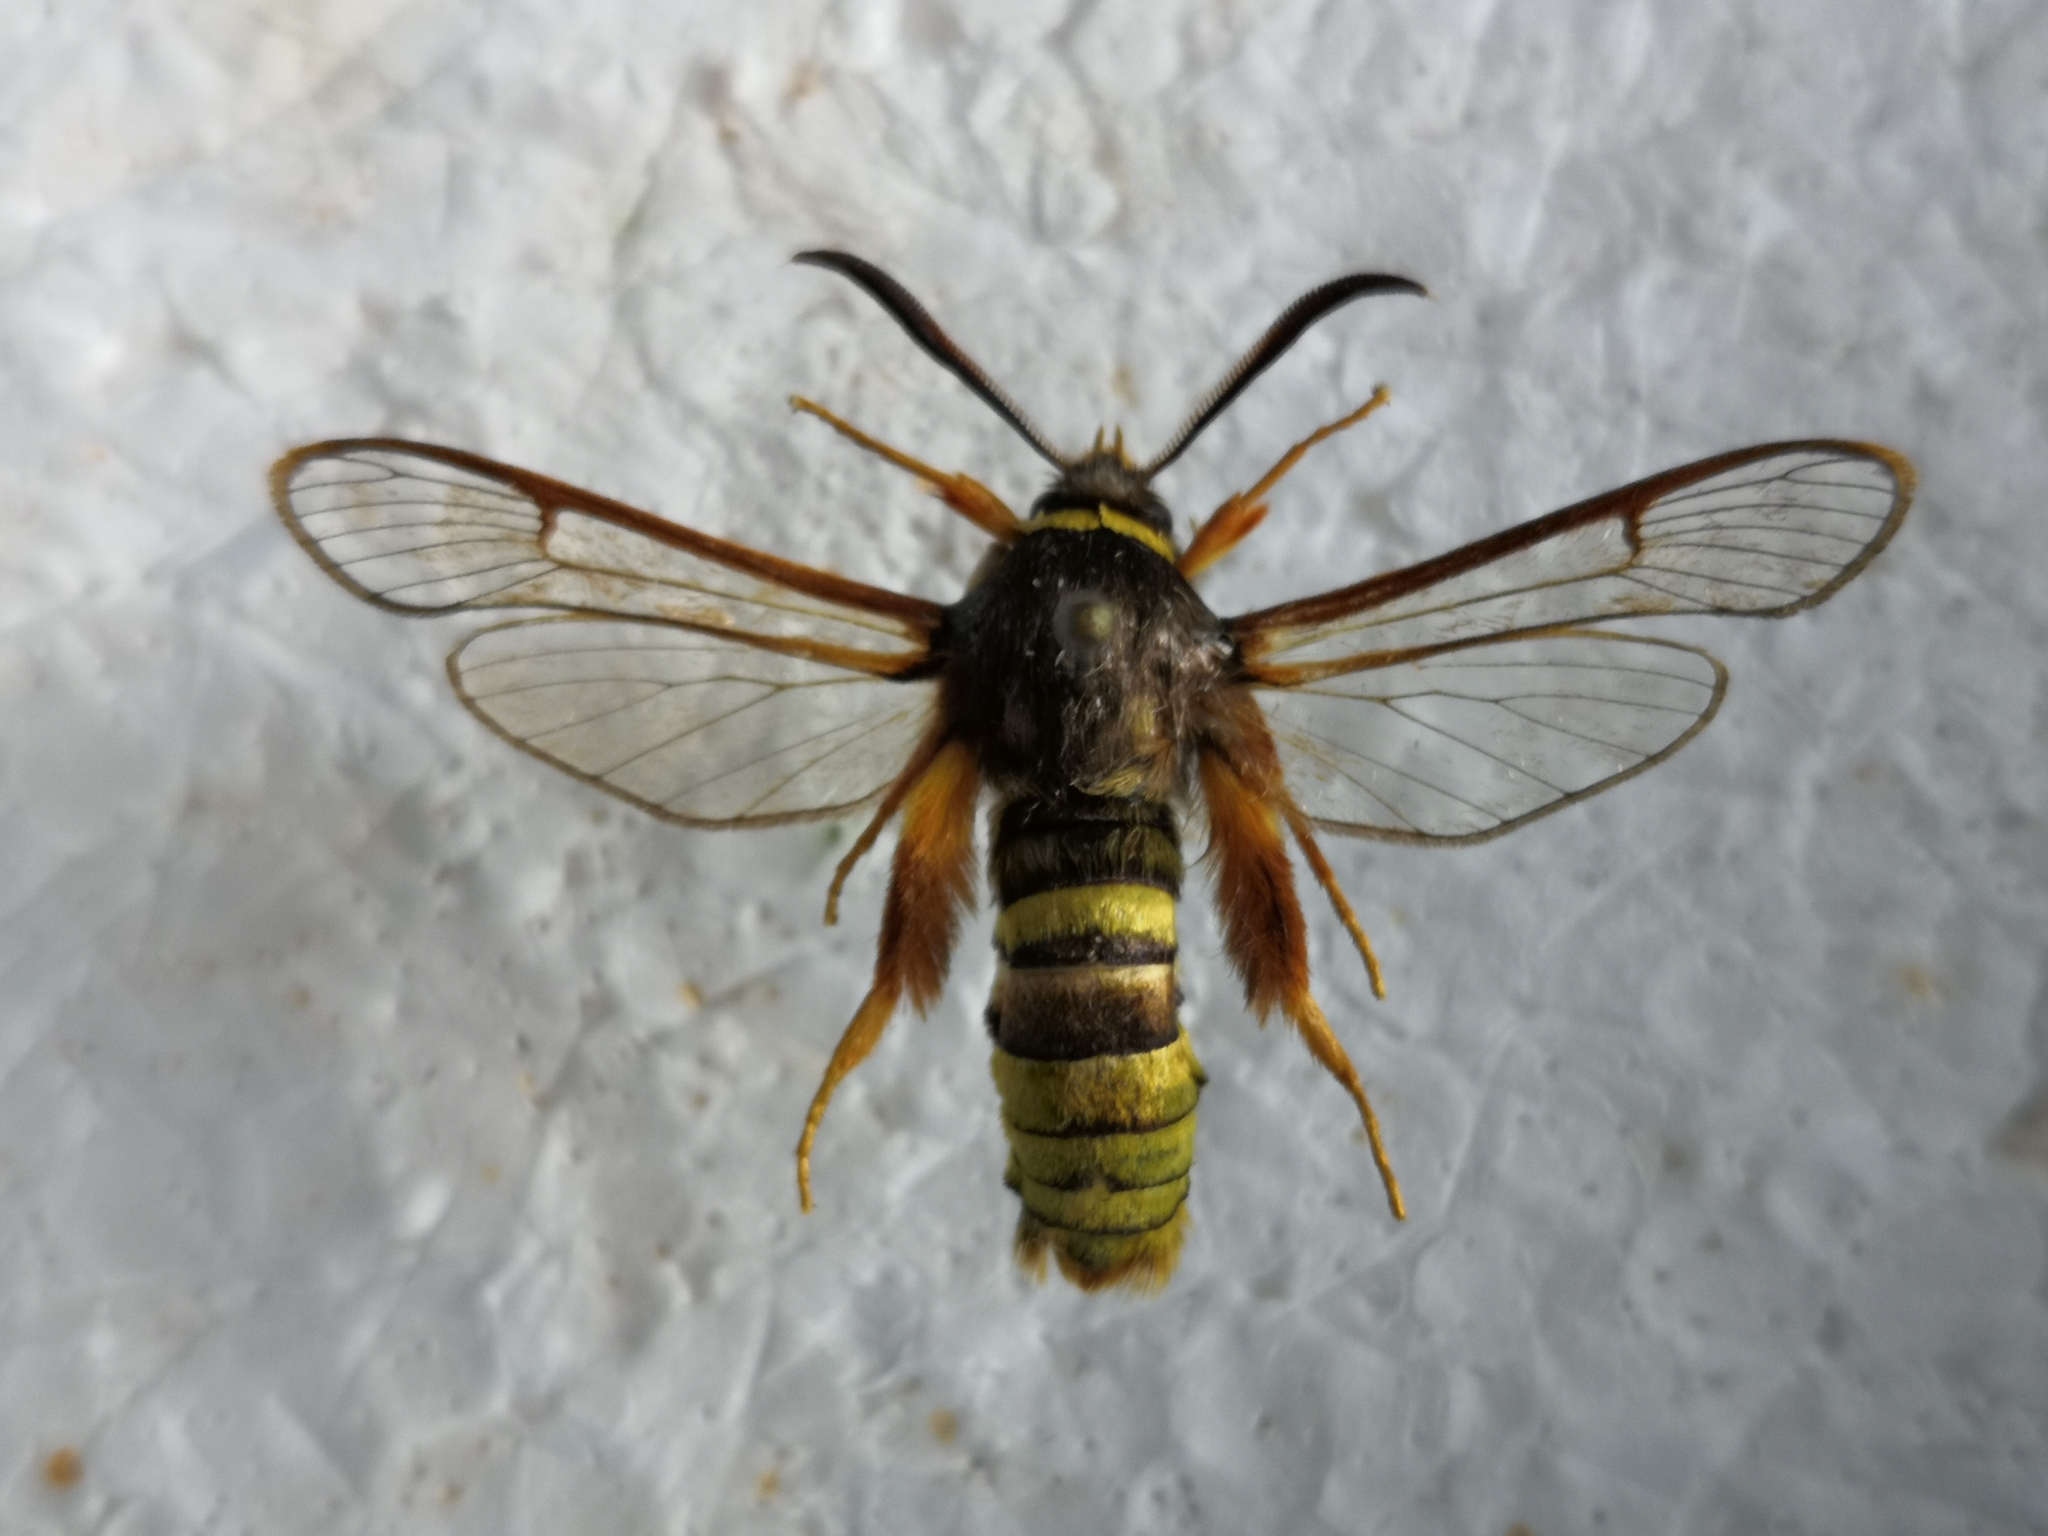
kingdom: Animalia
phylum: Arthropoda
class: Insecta
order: Lepidoptera
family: Sesiidae
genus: Sesia
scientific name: Sesia bembeciformis
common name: Lunar hornet moth
